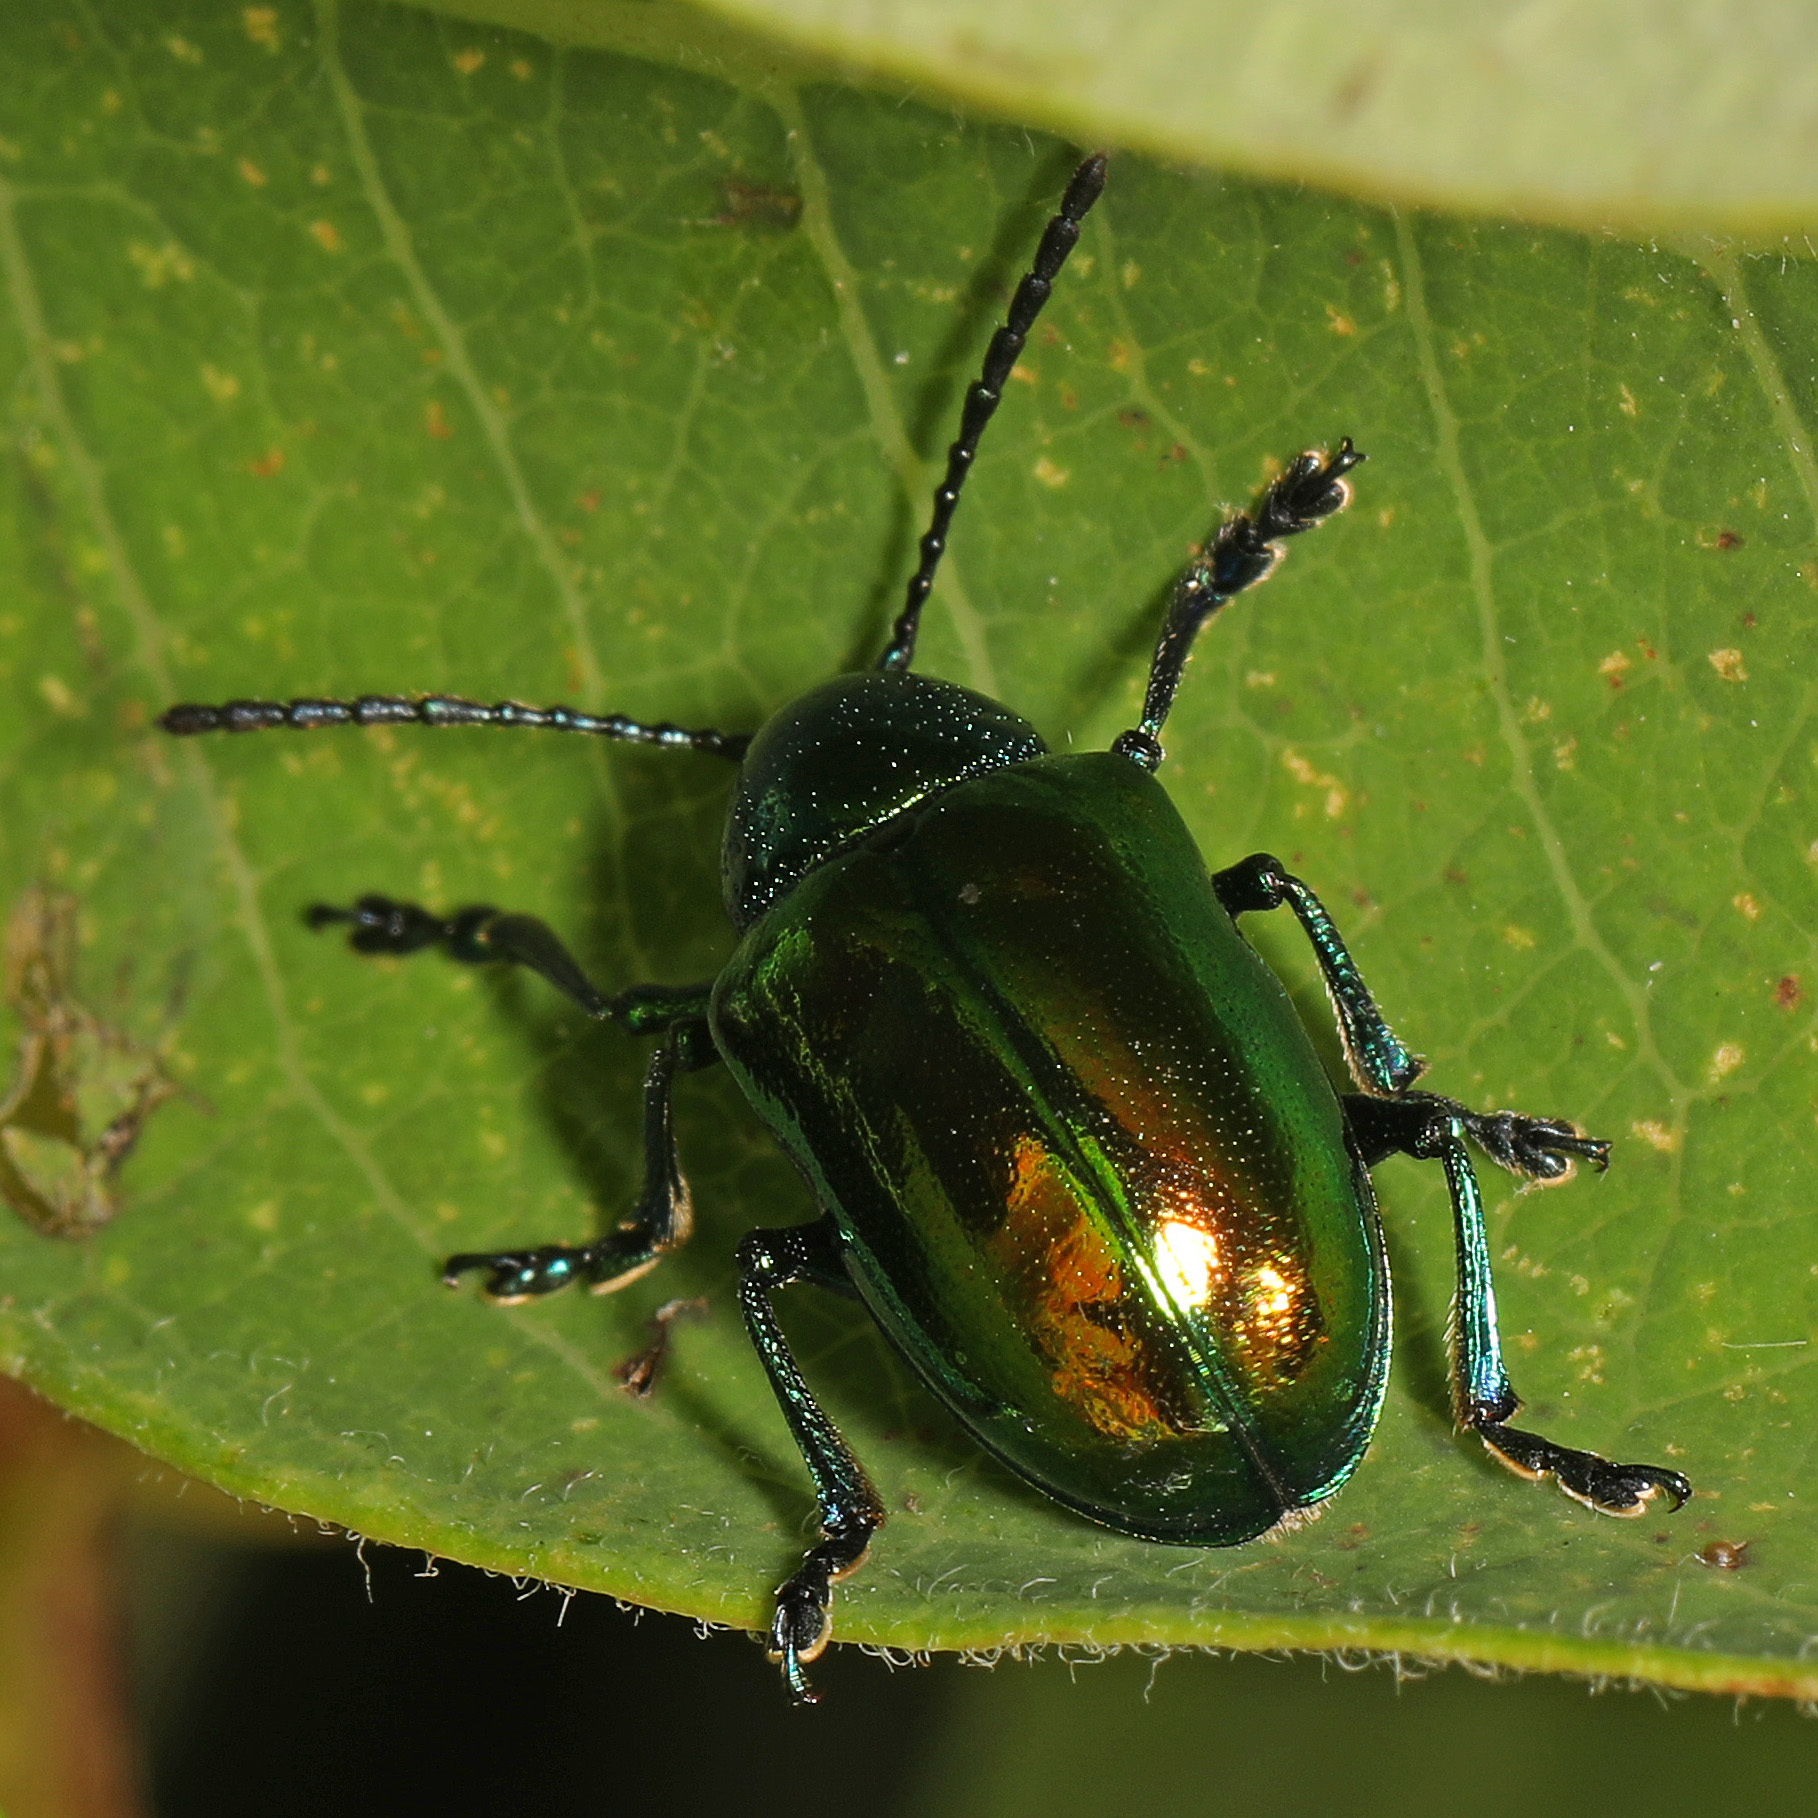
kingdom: Animalia
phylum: Arthropoda
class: Insecta
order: Coleoptera
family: Chrysomelidae
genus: Chrysochus
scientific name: Chrysochus auratus
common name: Dogbane leaf beetle
